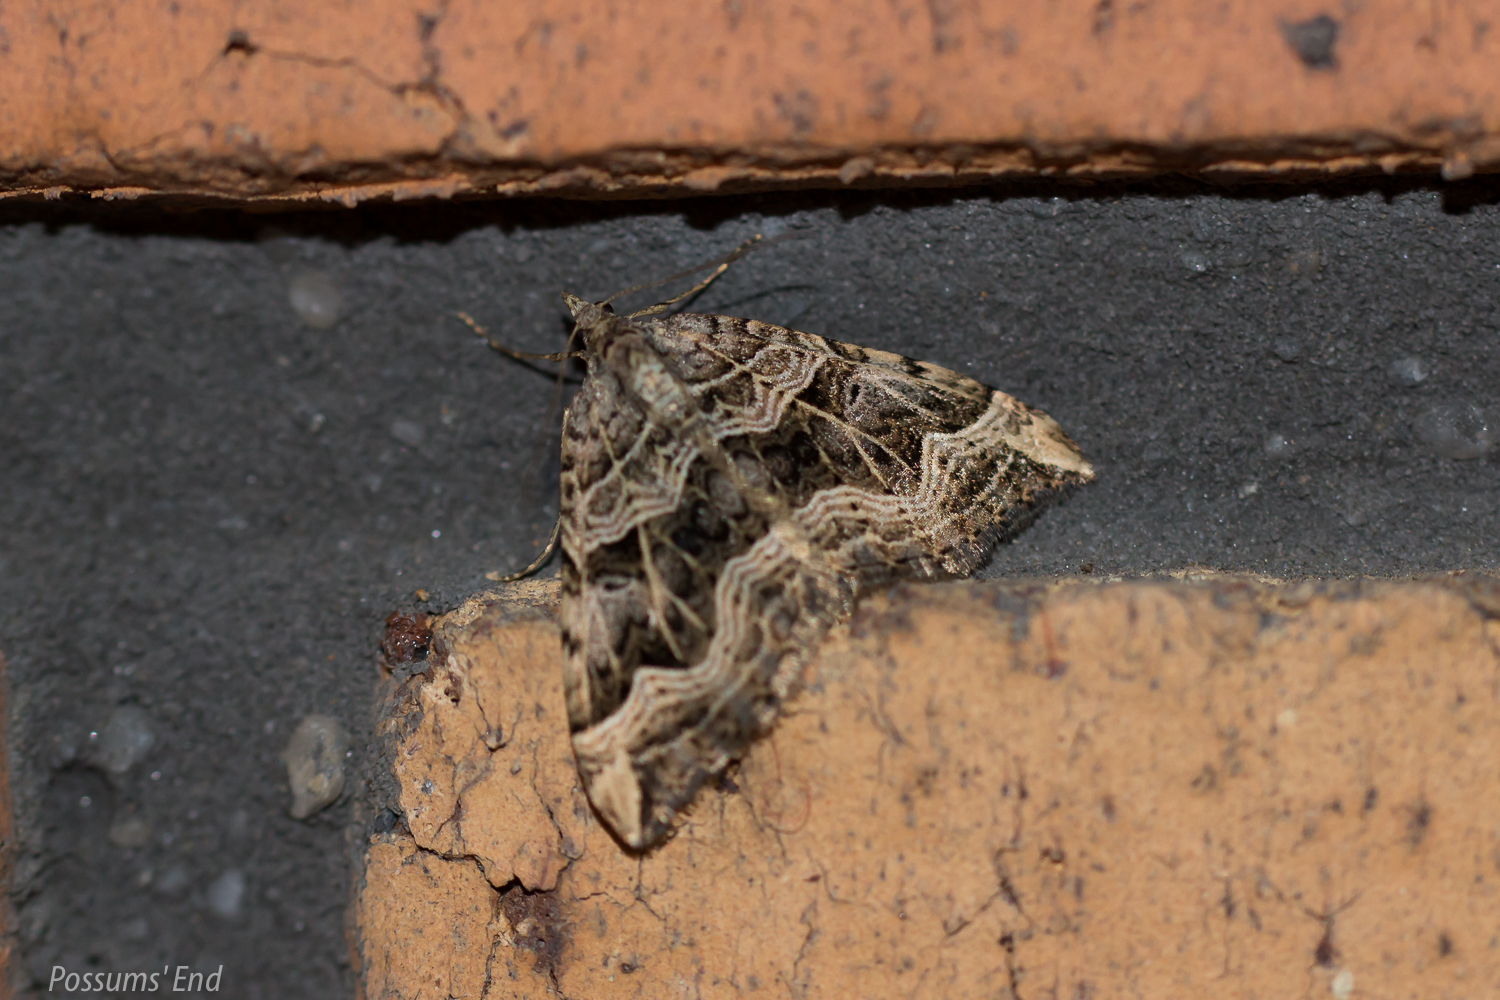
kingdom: Animalia
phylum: Arthropoda
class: Insecta
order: Lepidoptera
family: Geometridae
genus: Xanthorhoe
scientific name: Xanthorhoe semifissata
